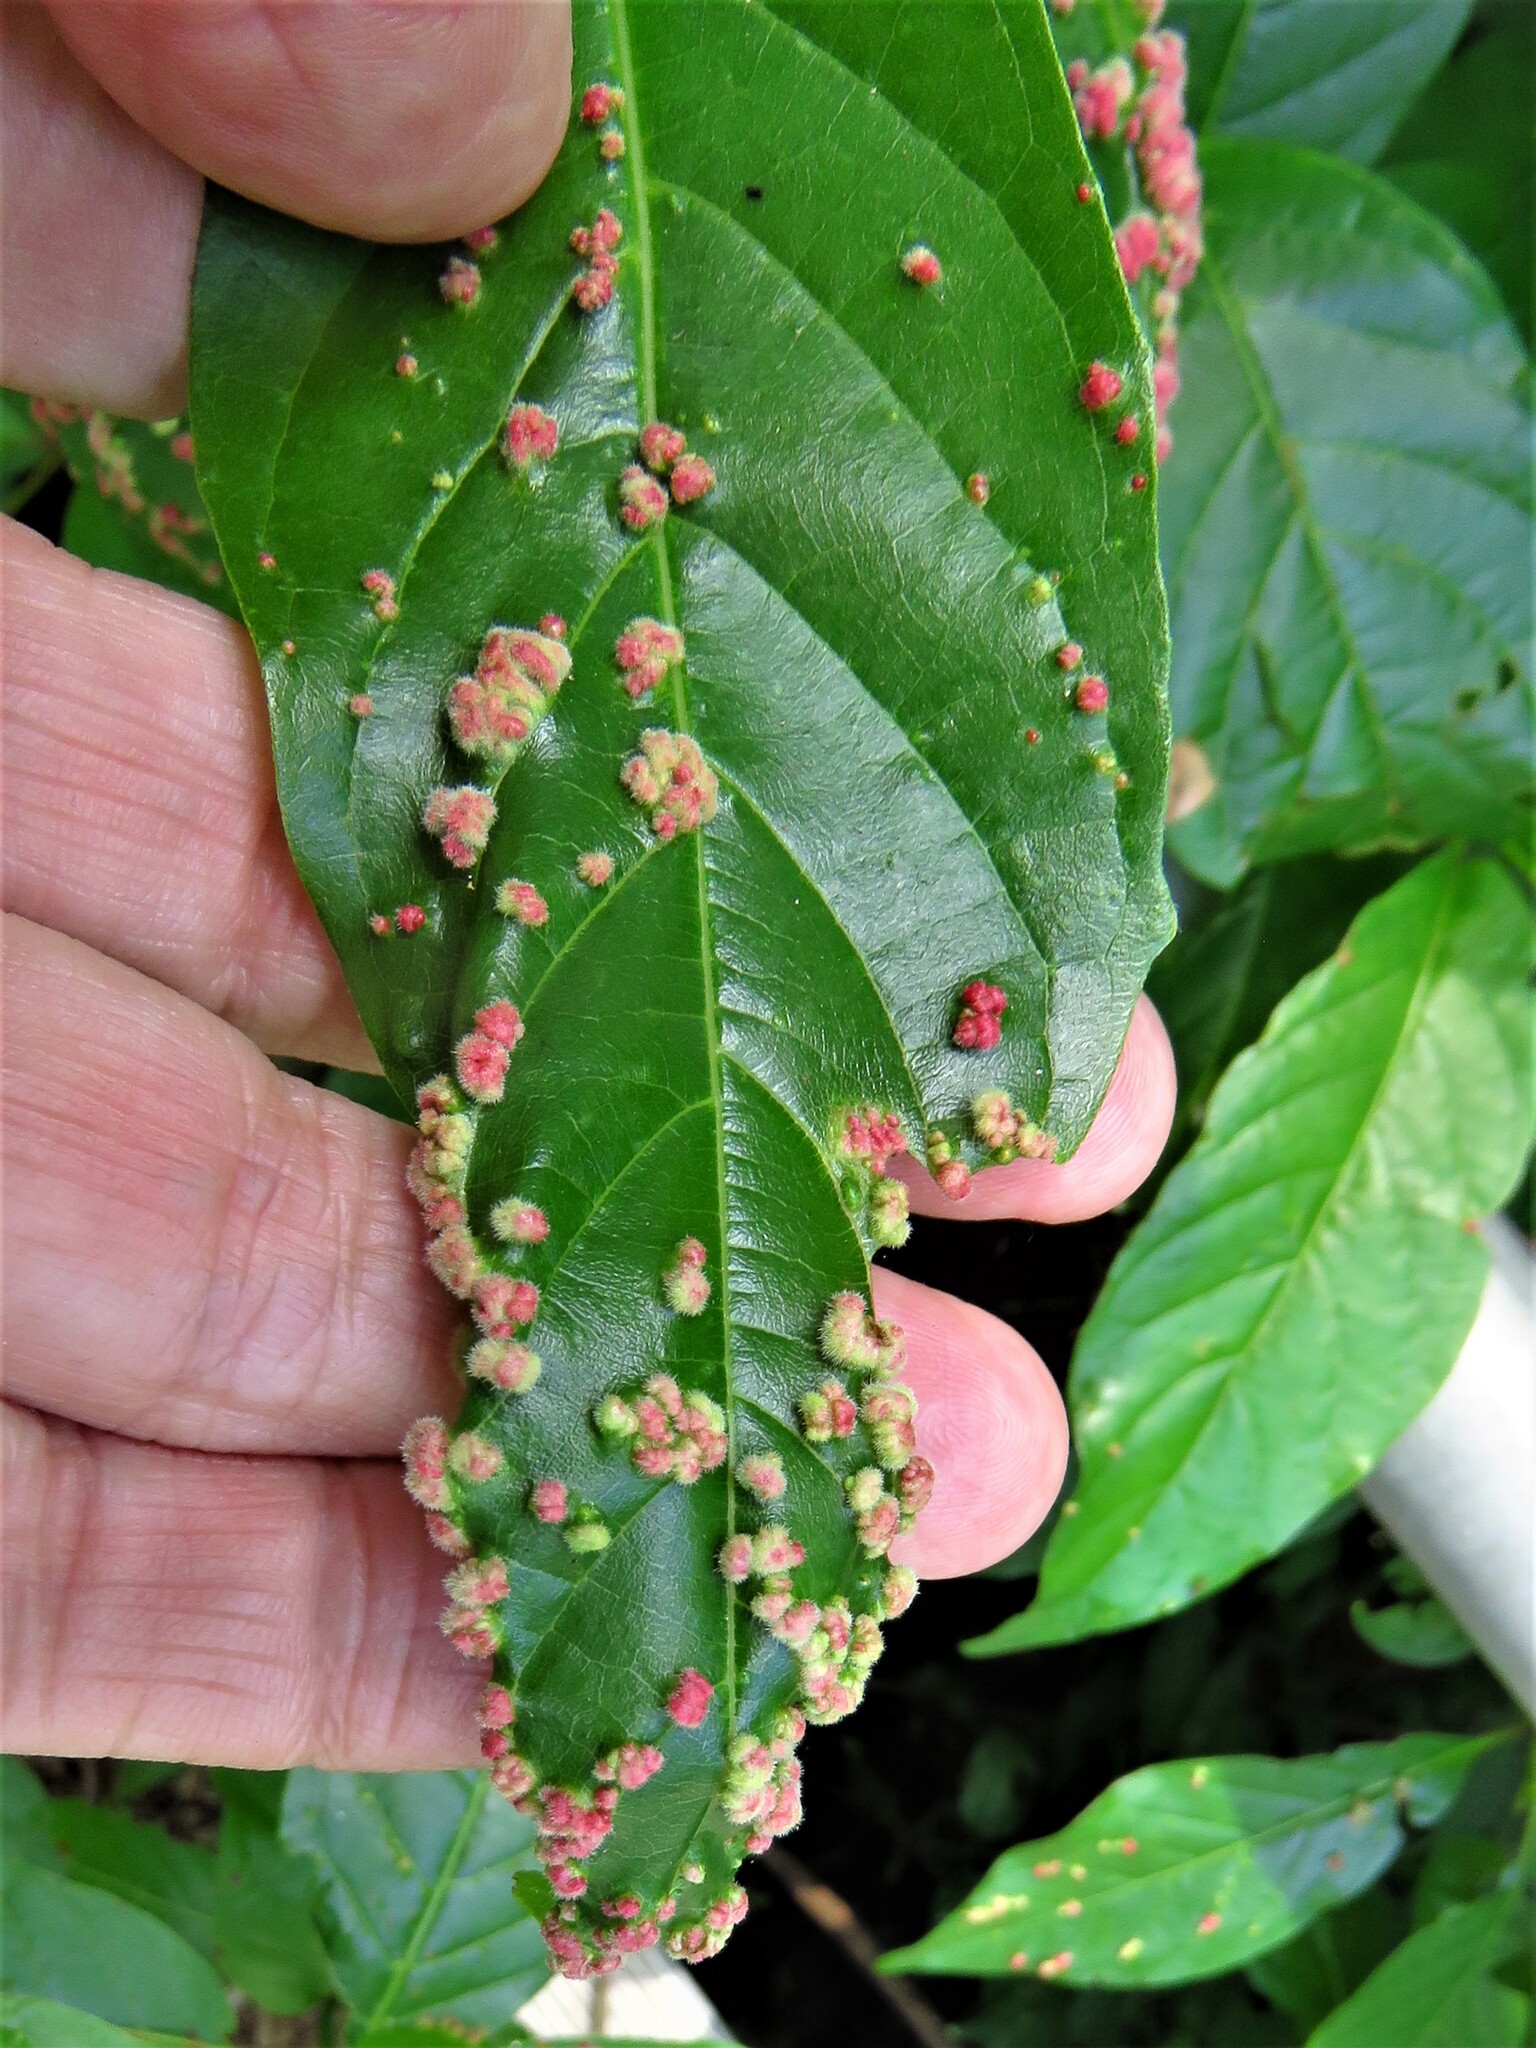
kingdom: Animalia
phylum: Arthropoda
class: Arachnida
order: Trombidiformes
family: Eriophyidae
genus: Aceria
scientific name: Aceria
